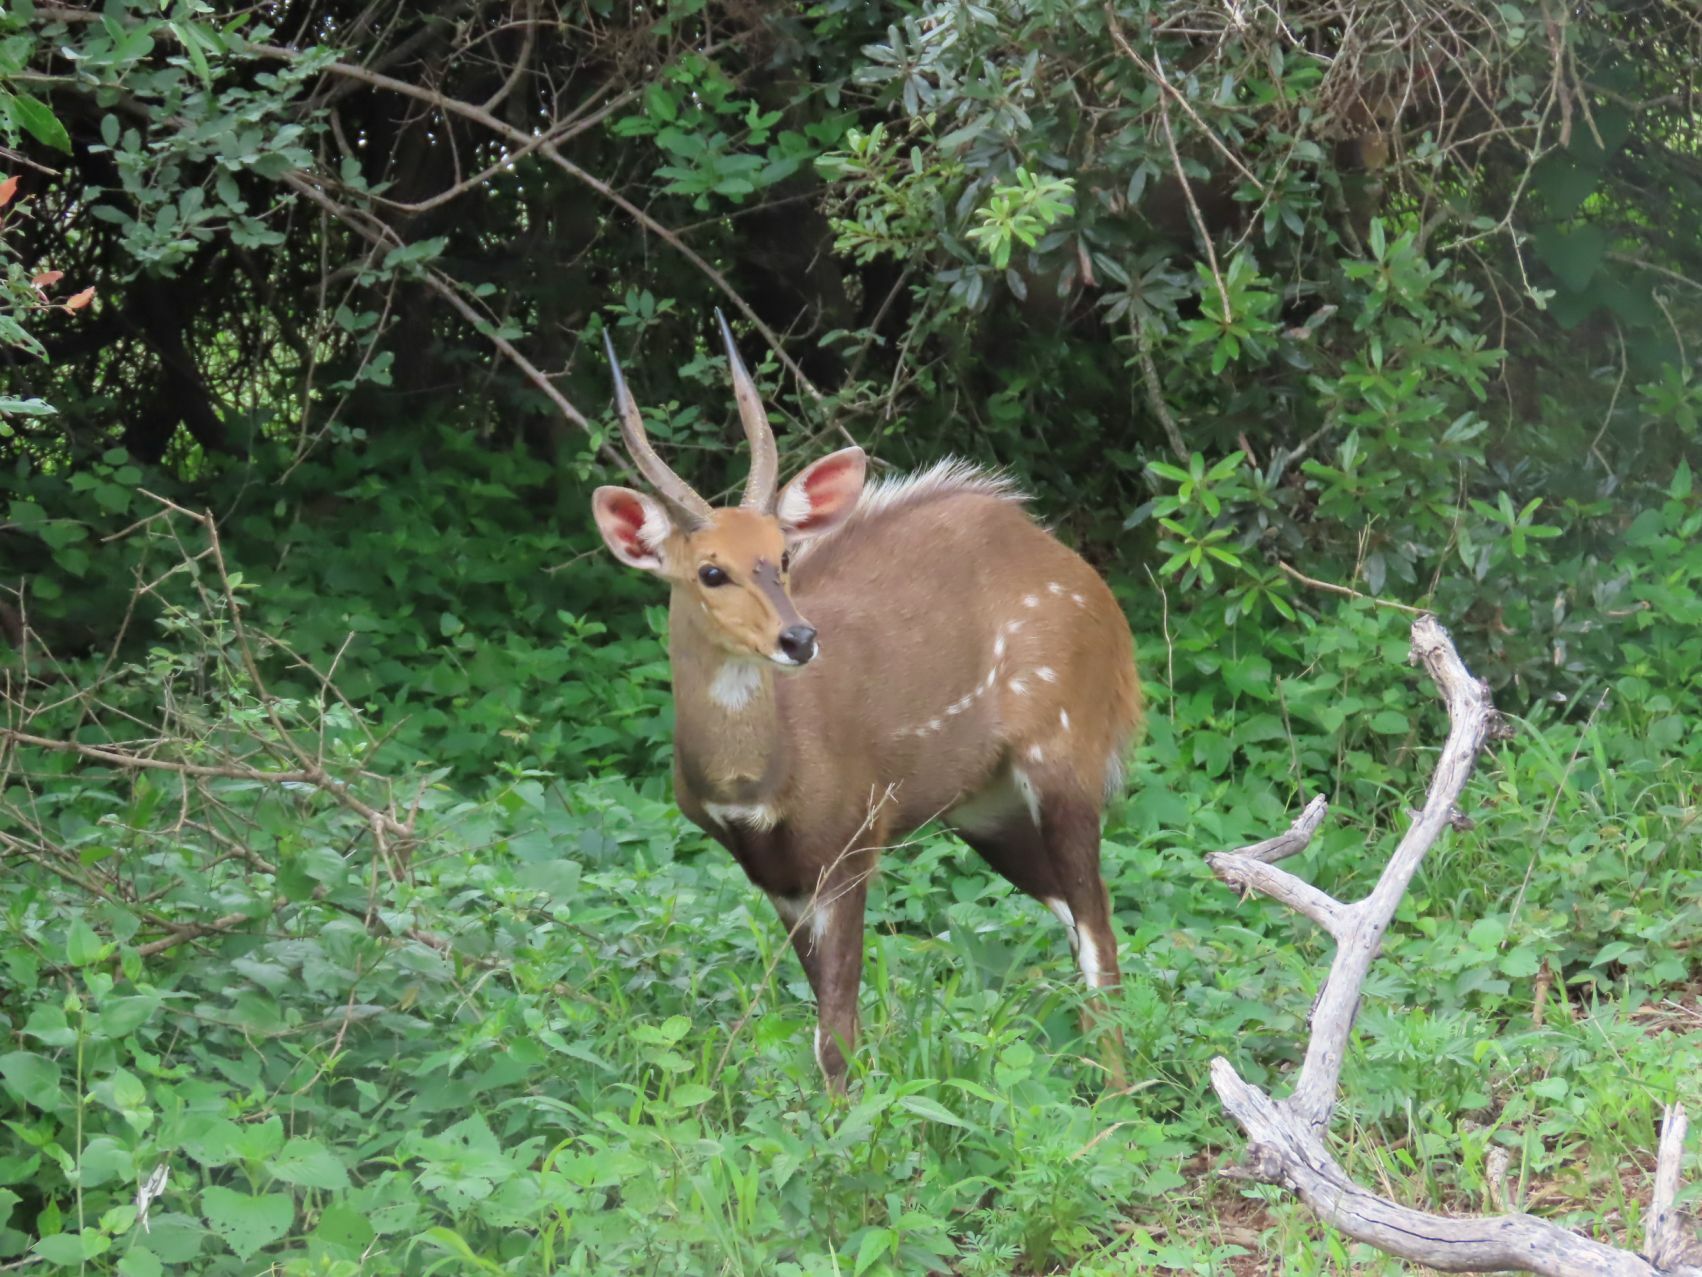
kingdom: Animalia
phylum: Chordata
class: Mammalia
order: Artiodactyla
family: Bovidae
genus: Tragelaphus
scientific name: Tragelaphus scriptus
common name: Bushbuck
